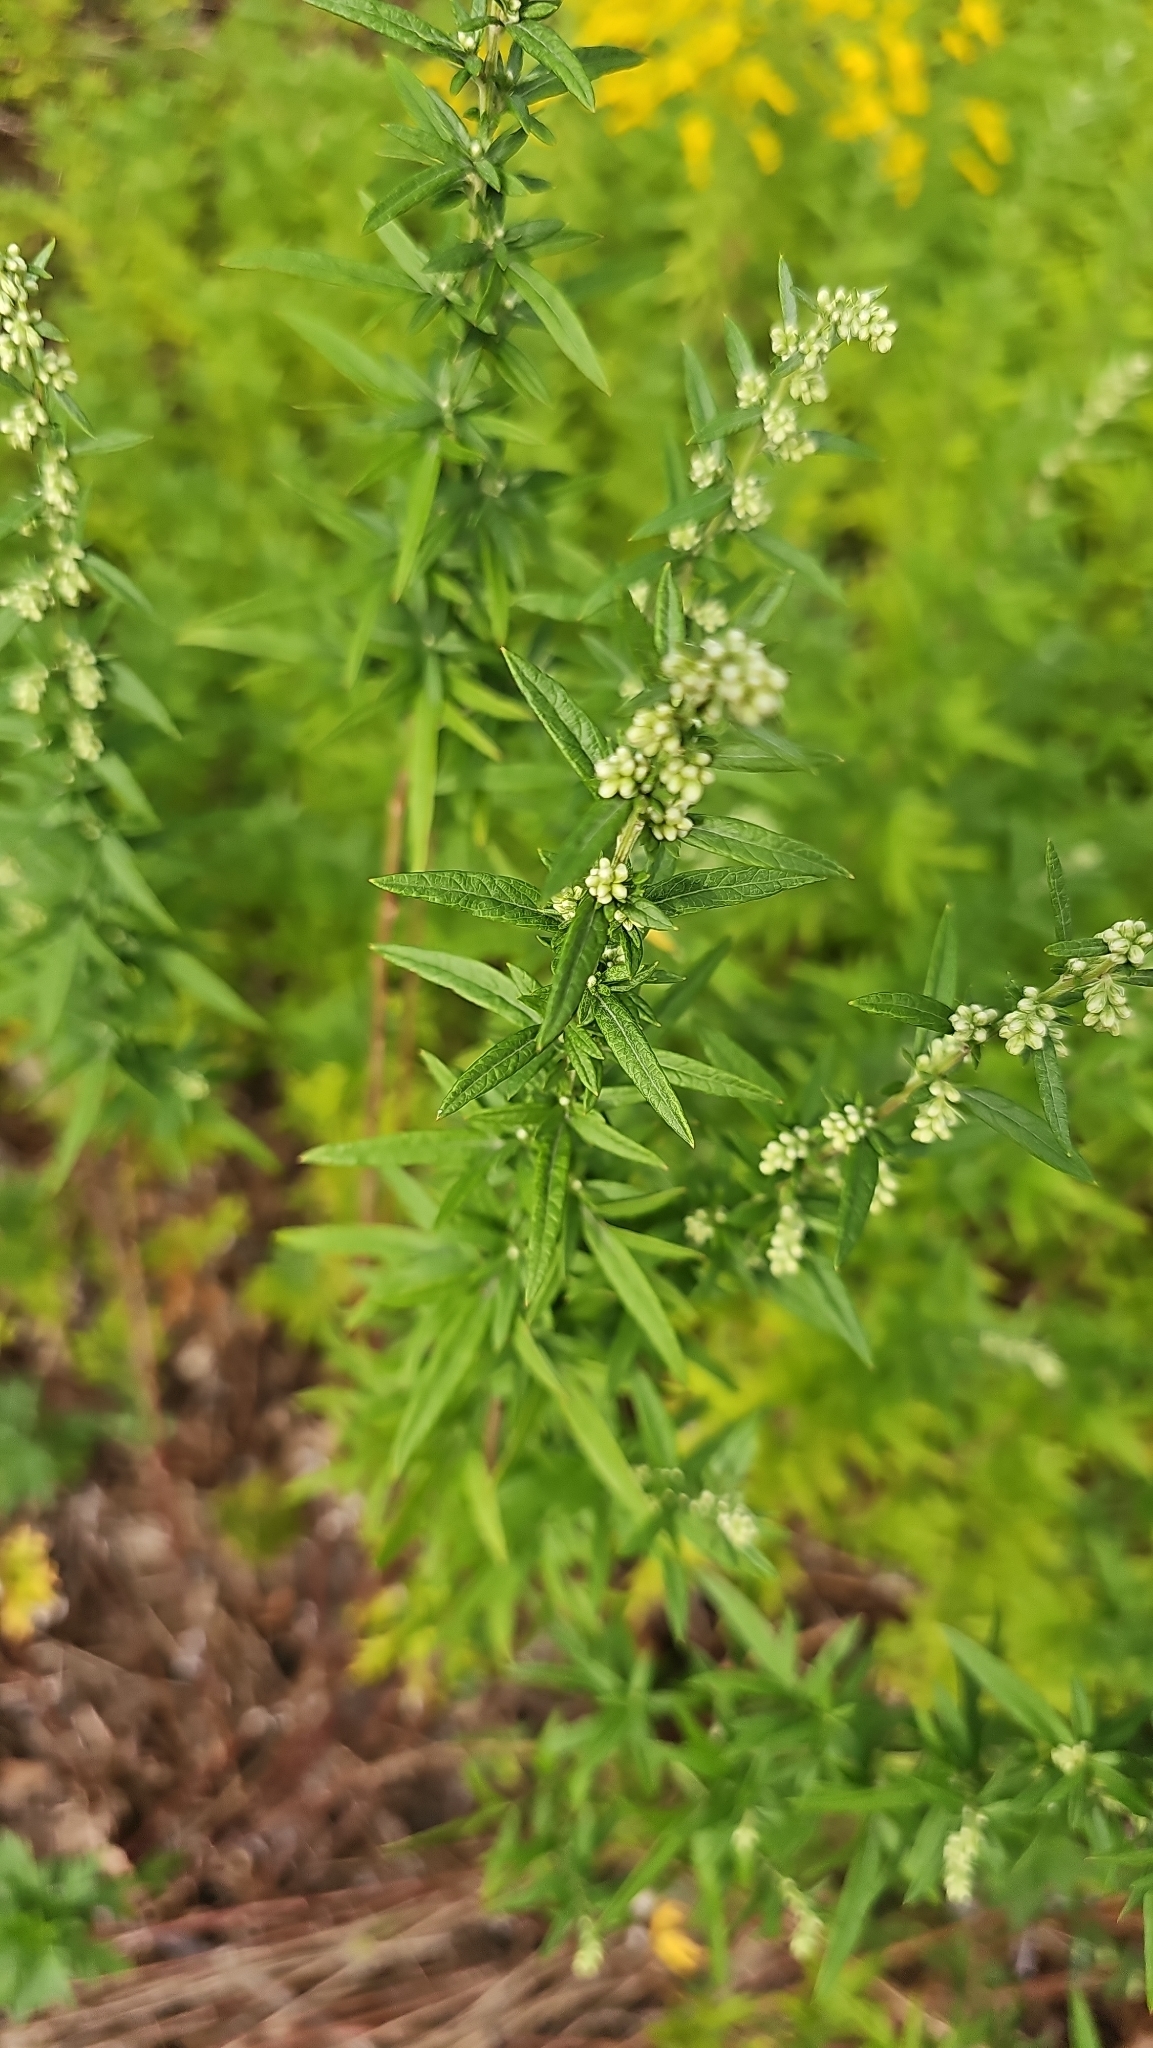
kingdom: Plantae
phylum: Tracheophyta
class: Magnoliopsida
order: Asterales
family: Asteraceae
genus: Artemisia
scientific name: Artemisia vulgaris
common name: Mugwort
